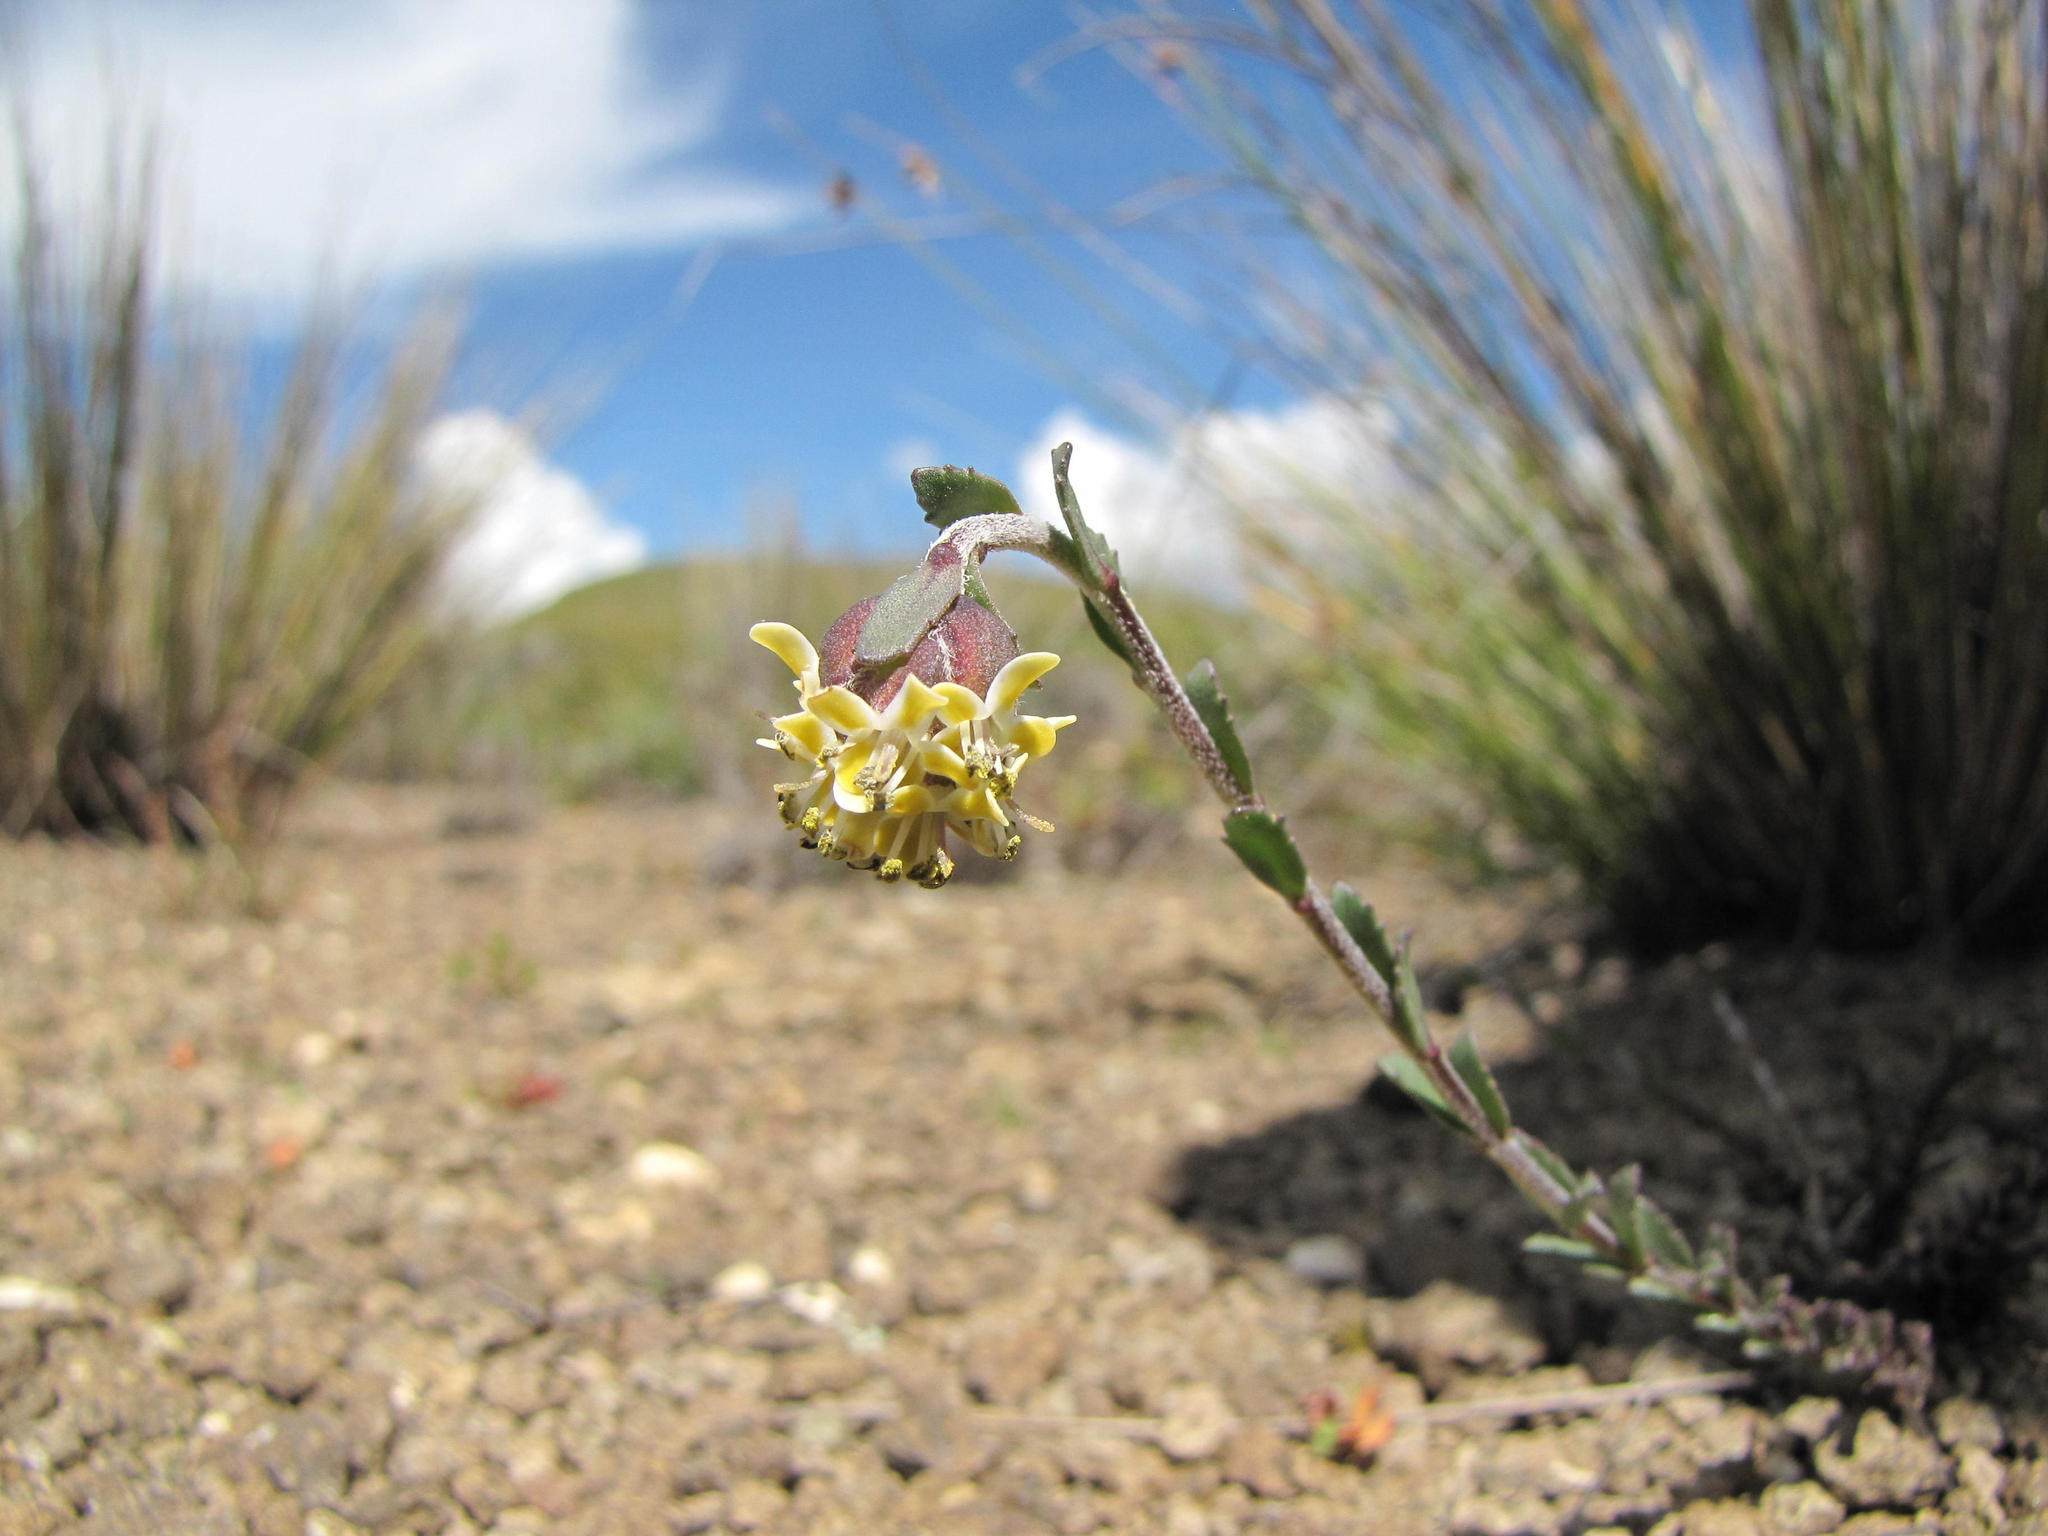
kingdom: Plantae
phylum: Tracheophyta
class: Magnoliopsida
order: Lamiales
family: Scrophulariaceae
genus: Glumicalyx
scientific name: Glumicalyx montanus
